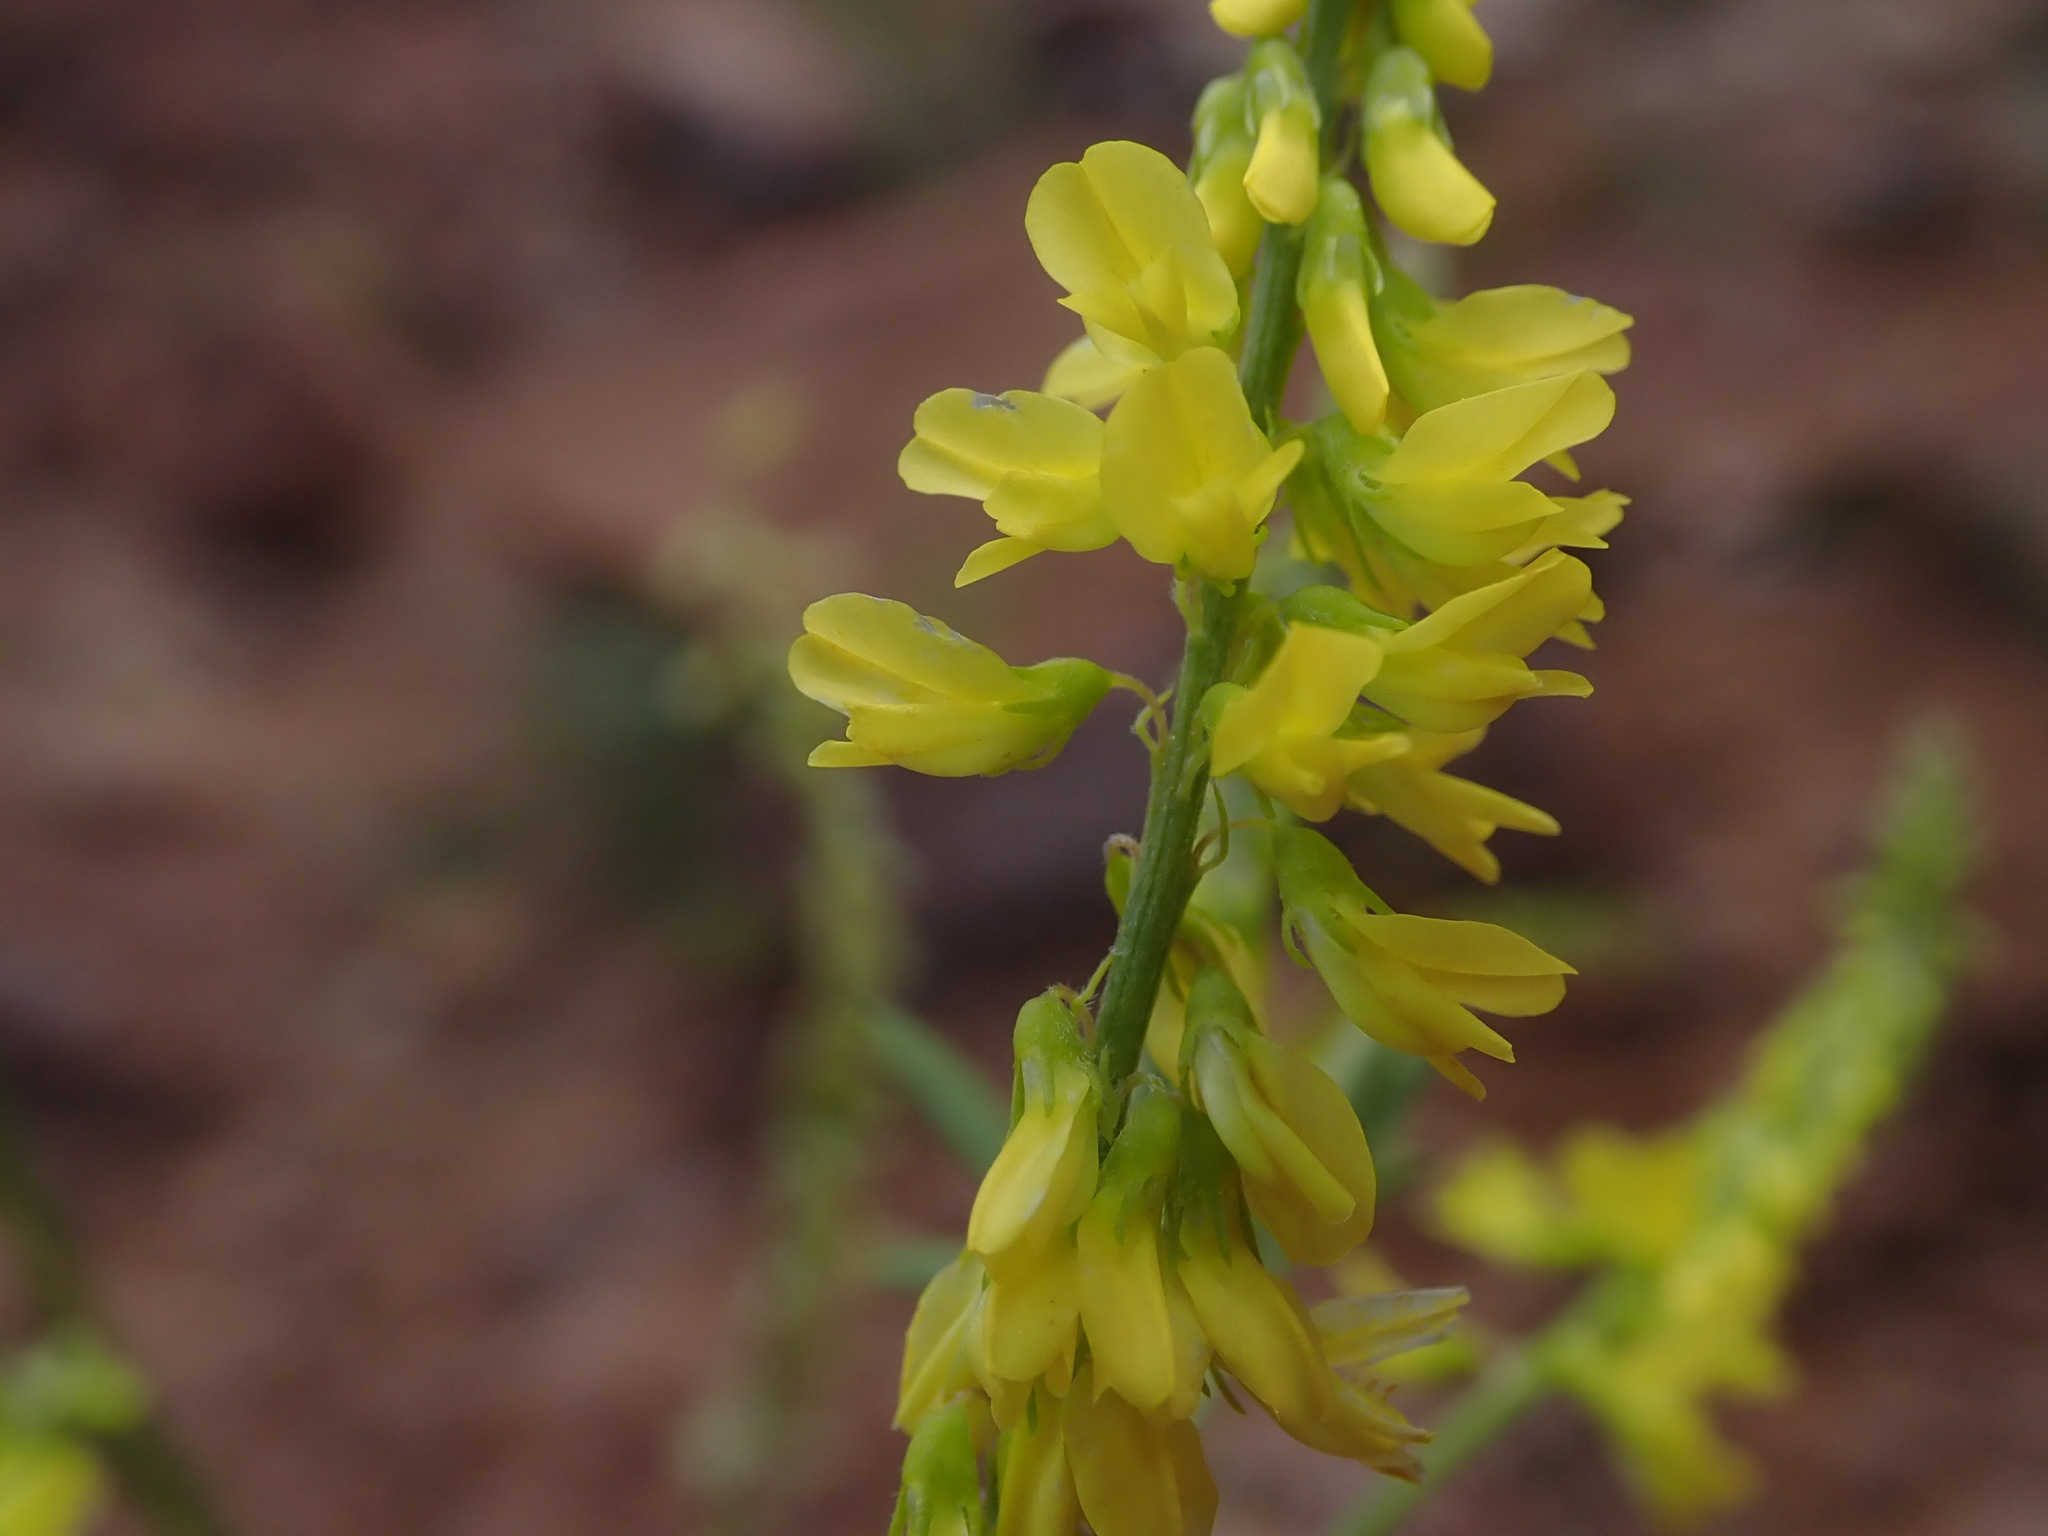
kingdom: Plantae
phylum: Tracheophyta
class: Magnoliopsida
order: Fabales
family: Fabaceae
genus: Melilotus
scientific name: Melilotus officinalis
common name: Sweetclover
